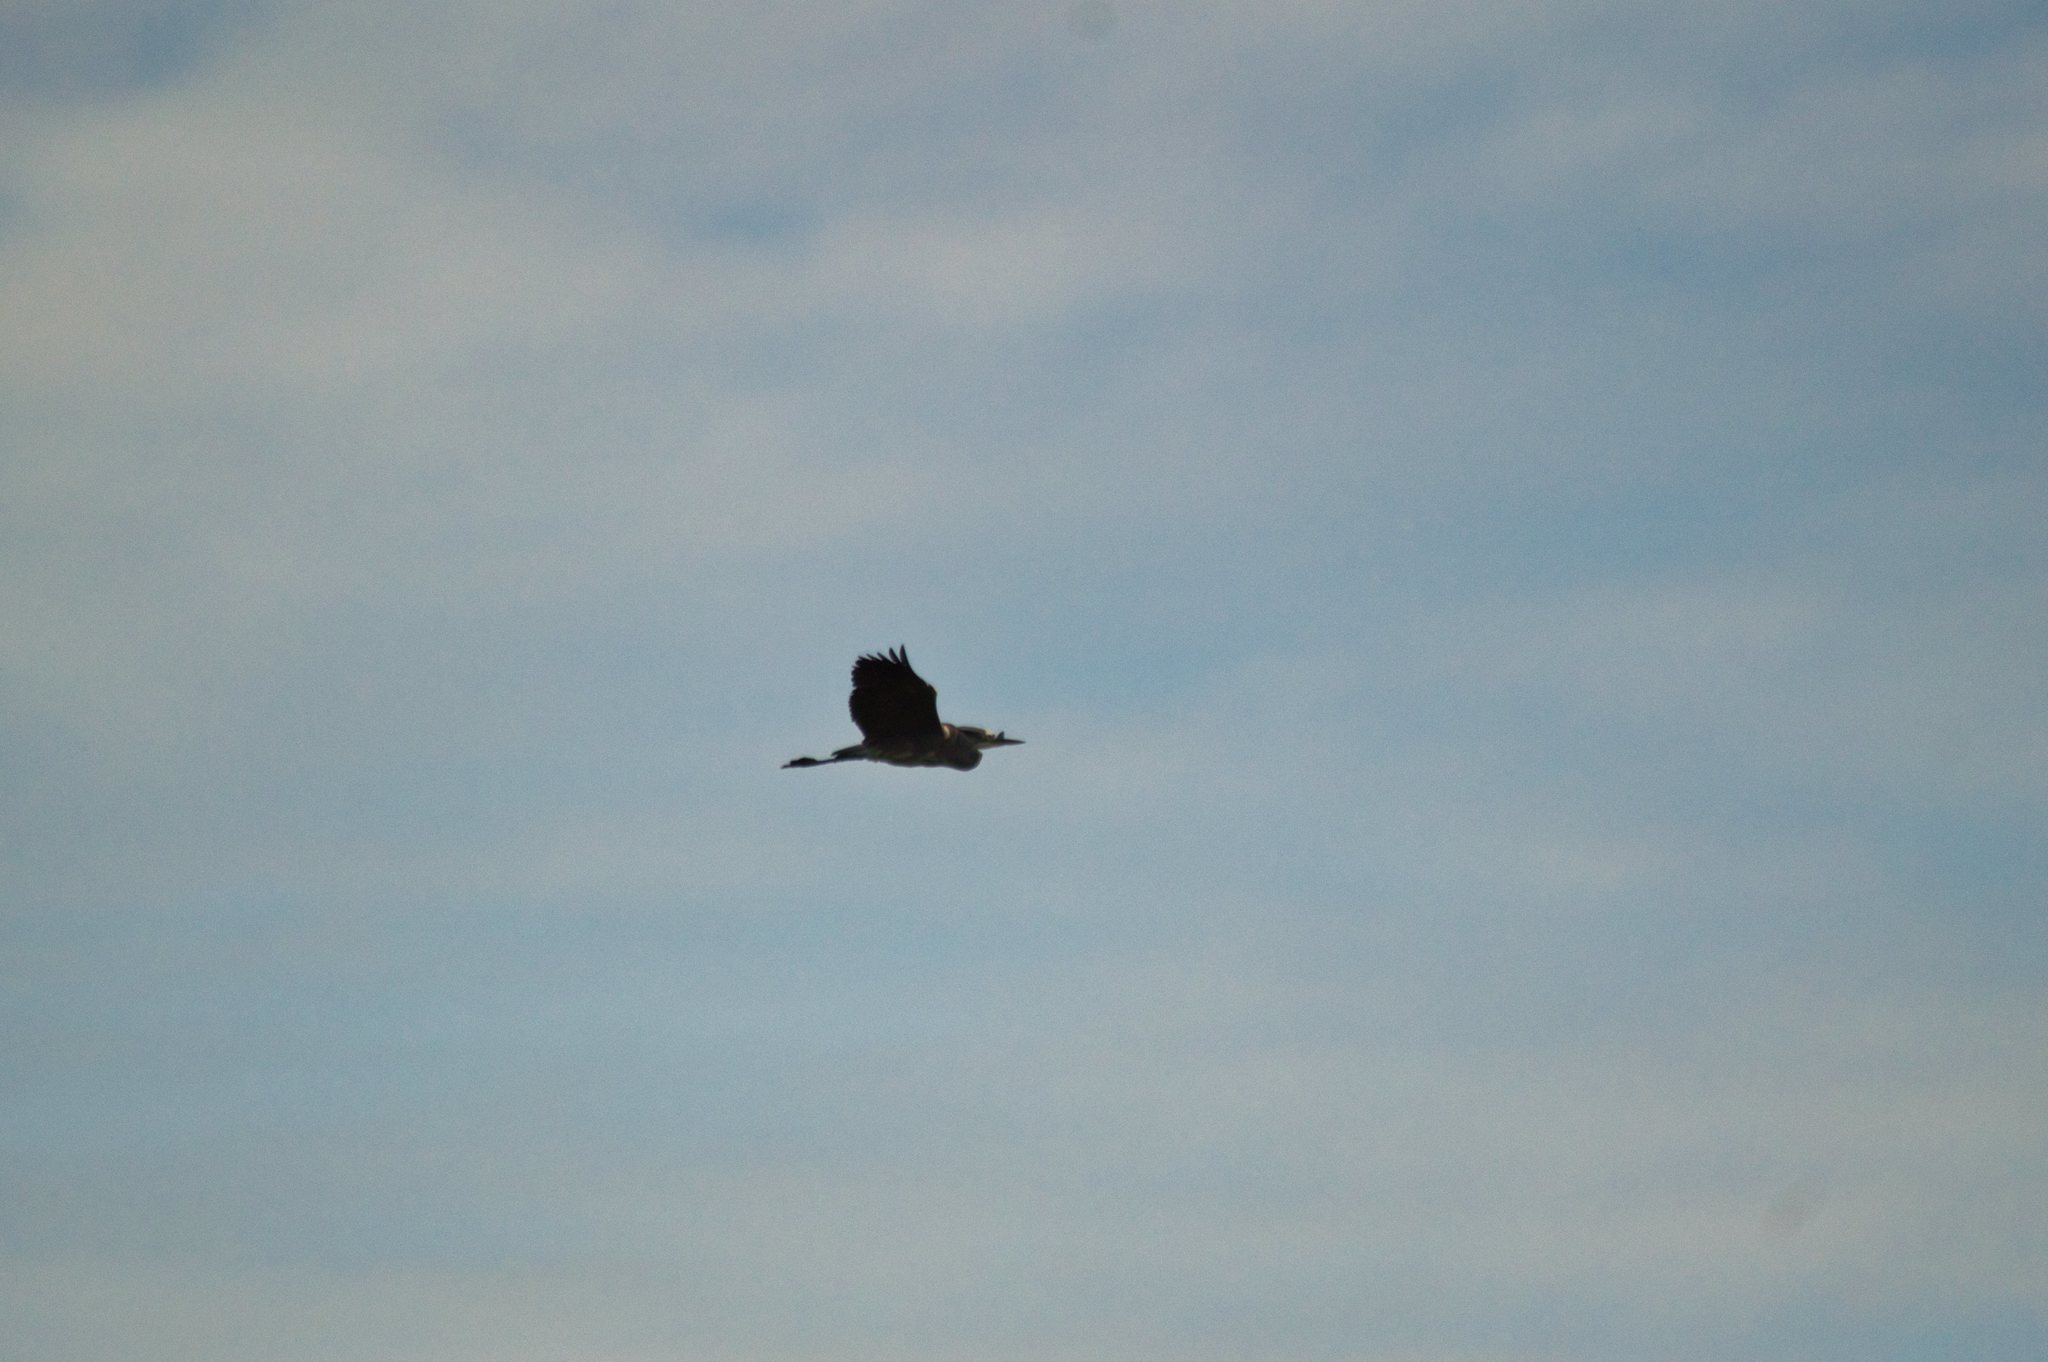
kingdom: Animalia
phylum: Chordata
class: Aves
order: Pelecaniformes
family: Ardeidae
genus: Ardea
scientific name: Ardea cinerea
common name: Grey heron
